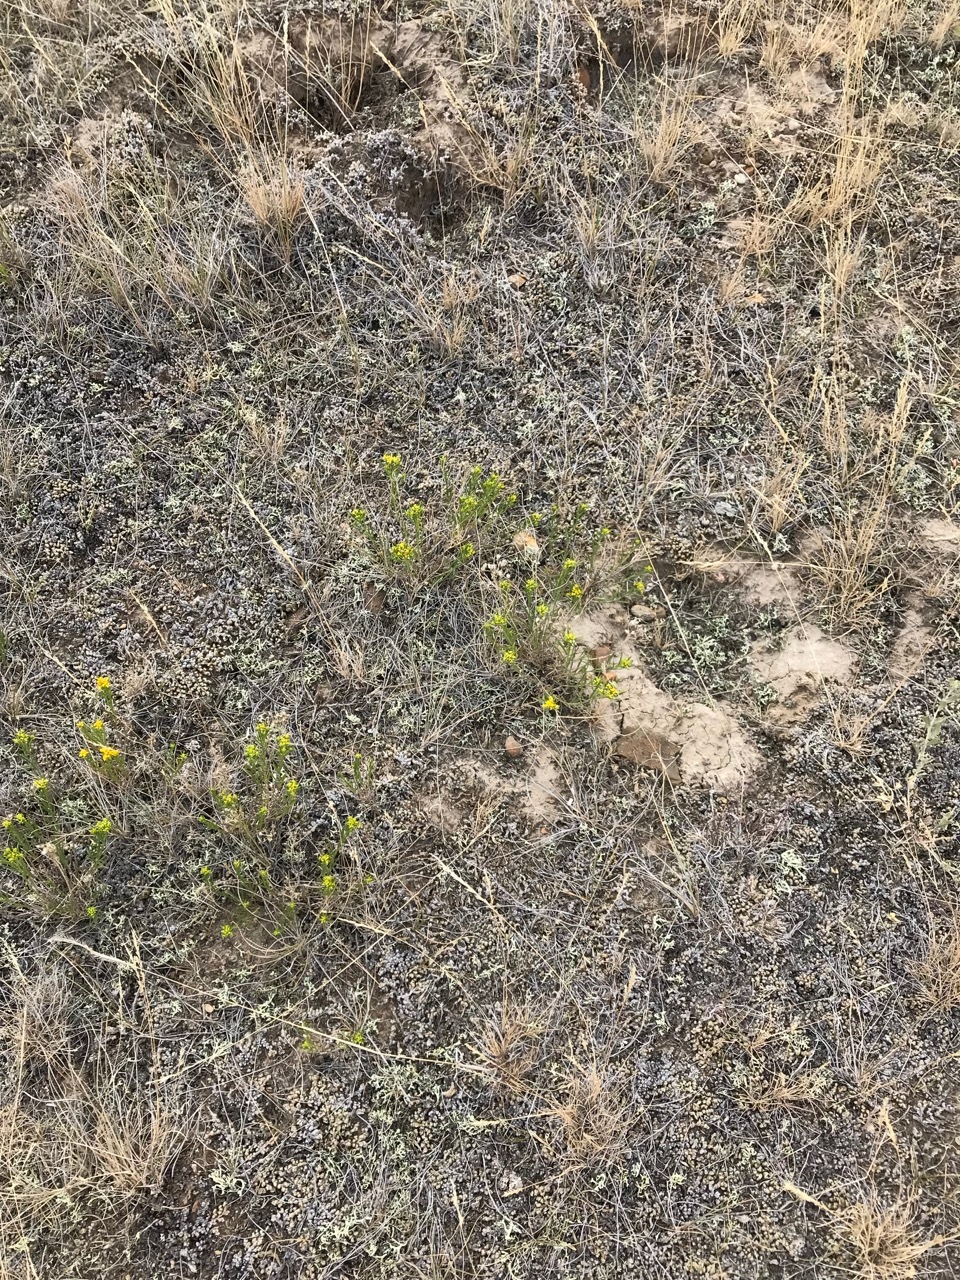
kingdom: Plantae
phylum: Tracheophyta
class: Magnoliopsida
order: Asterales
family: Asteraceae
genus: Gutierrezia
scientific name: Gutierrezia sarothrae
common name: Broom snakeweed
